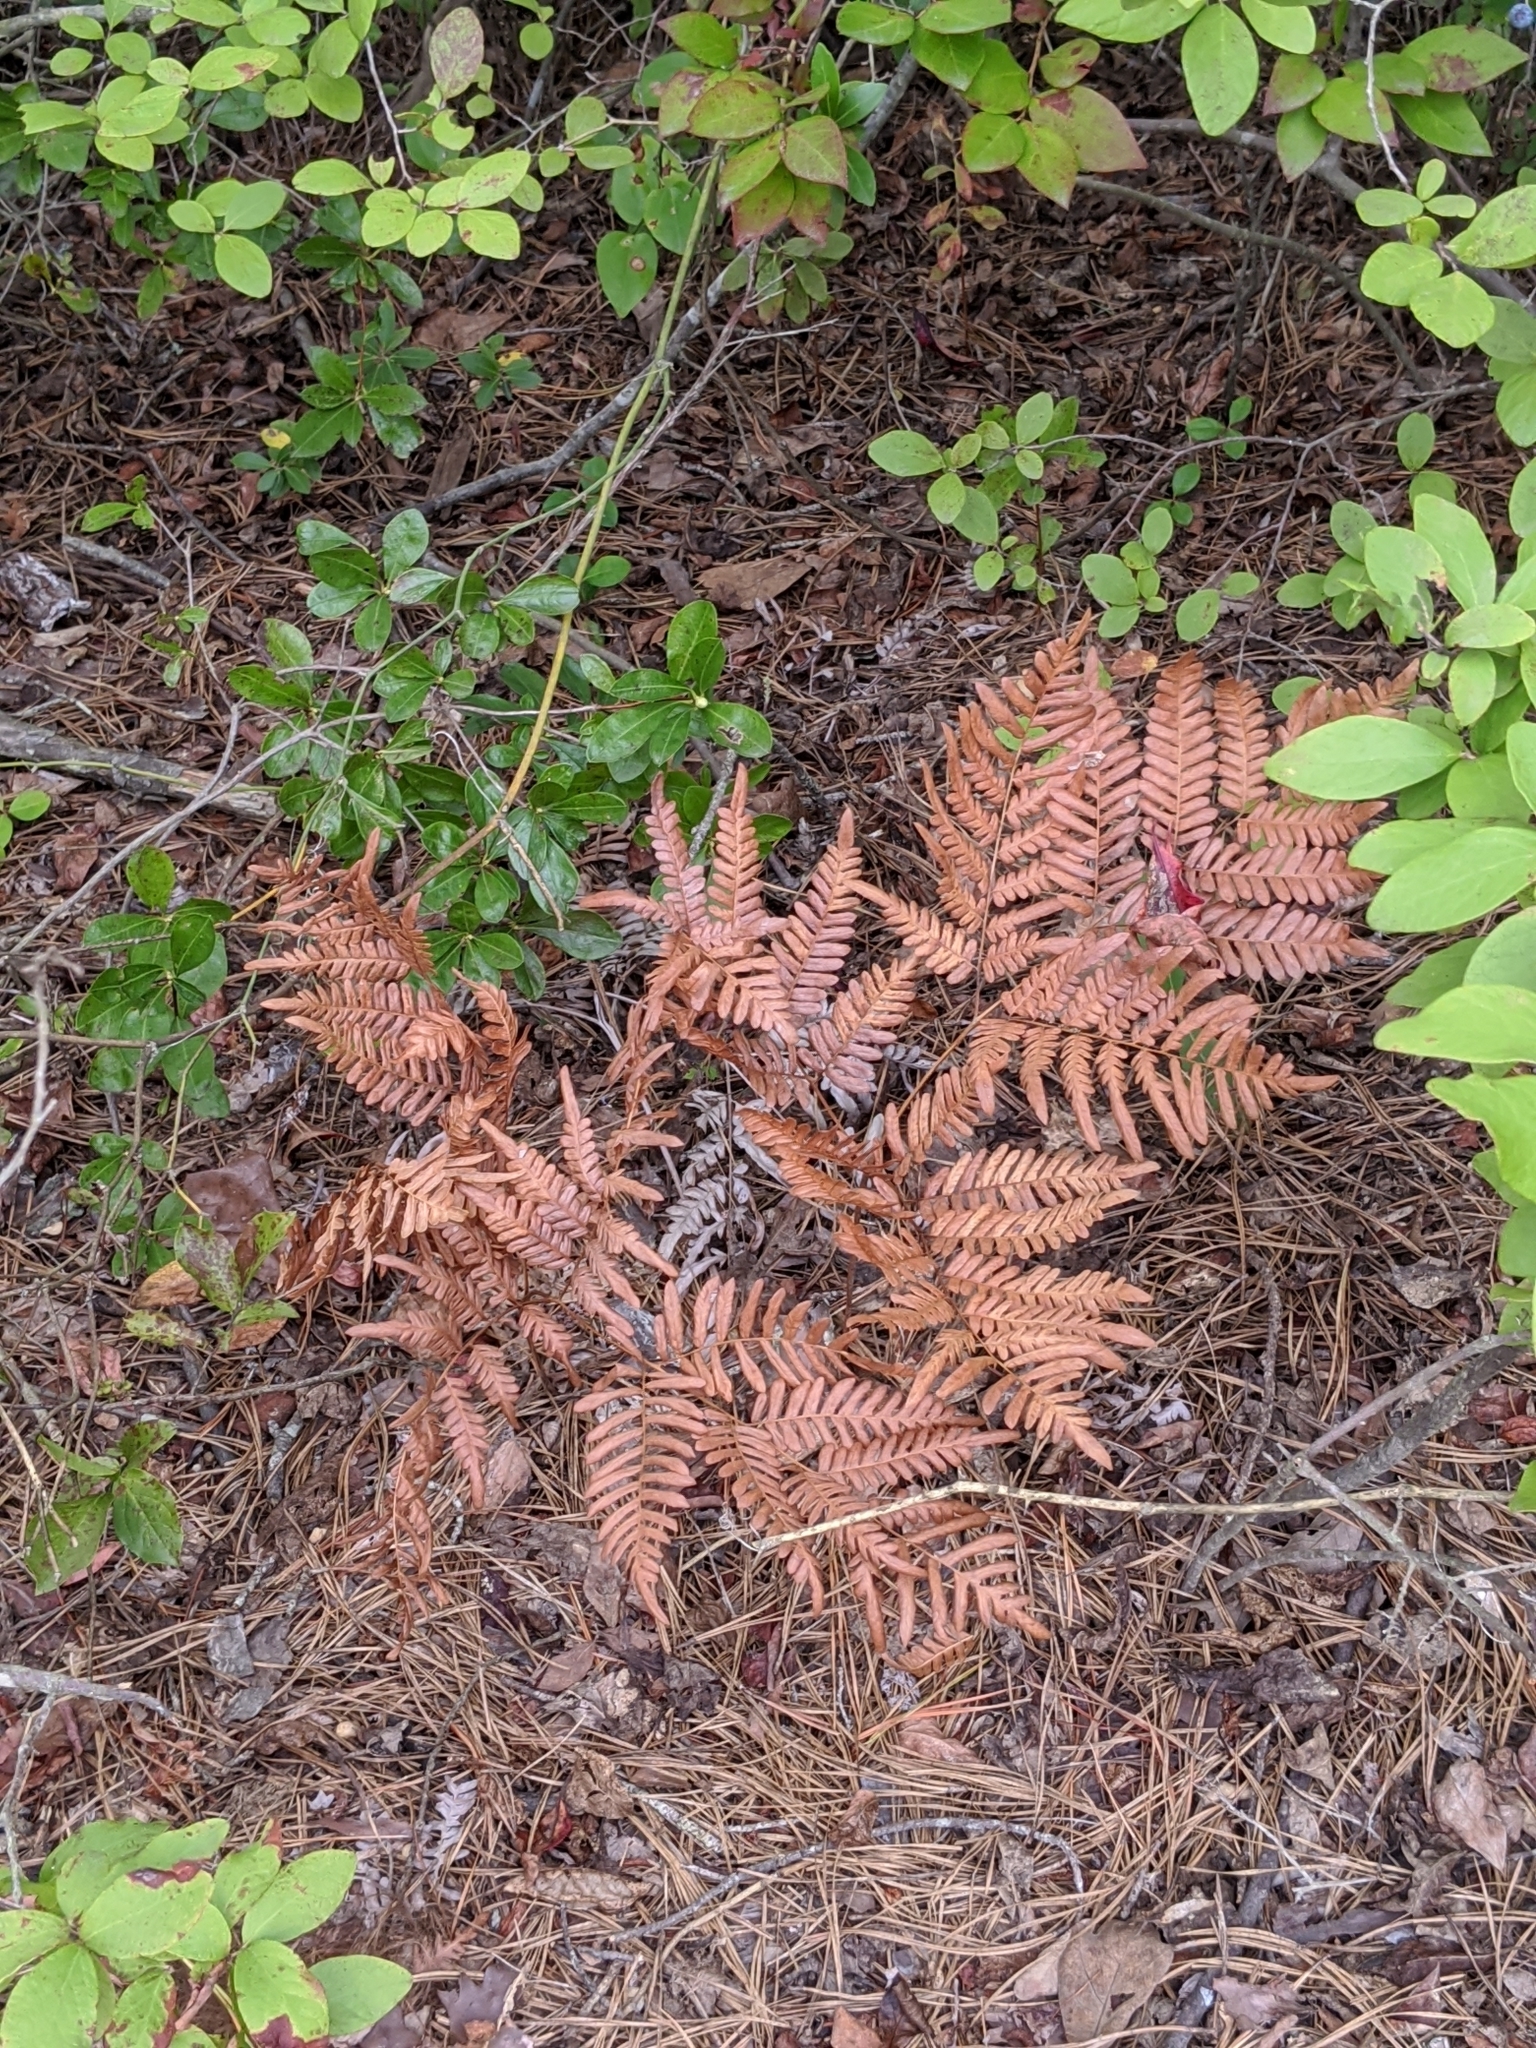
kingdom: Plantae
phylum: Tracheophyta
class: Polypodiopsida
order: Polypodiales
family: Dennstaedtiaceae
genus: Pteridium
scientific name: Pteridium aquilinum
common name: Bracken
